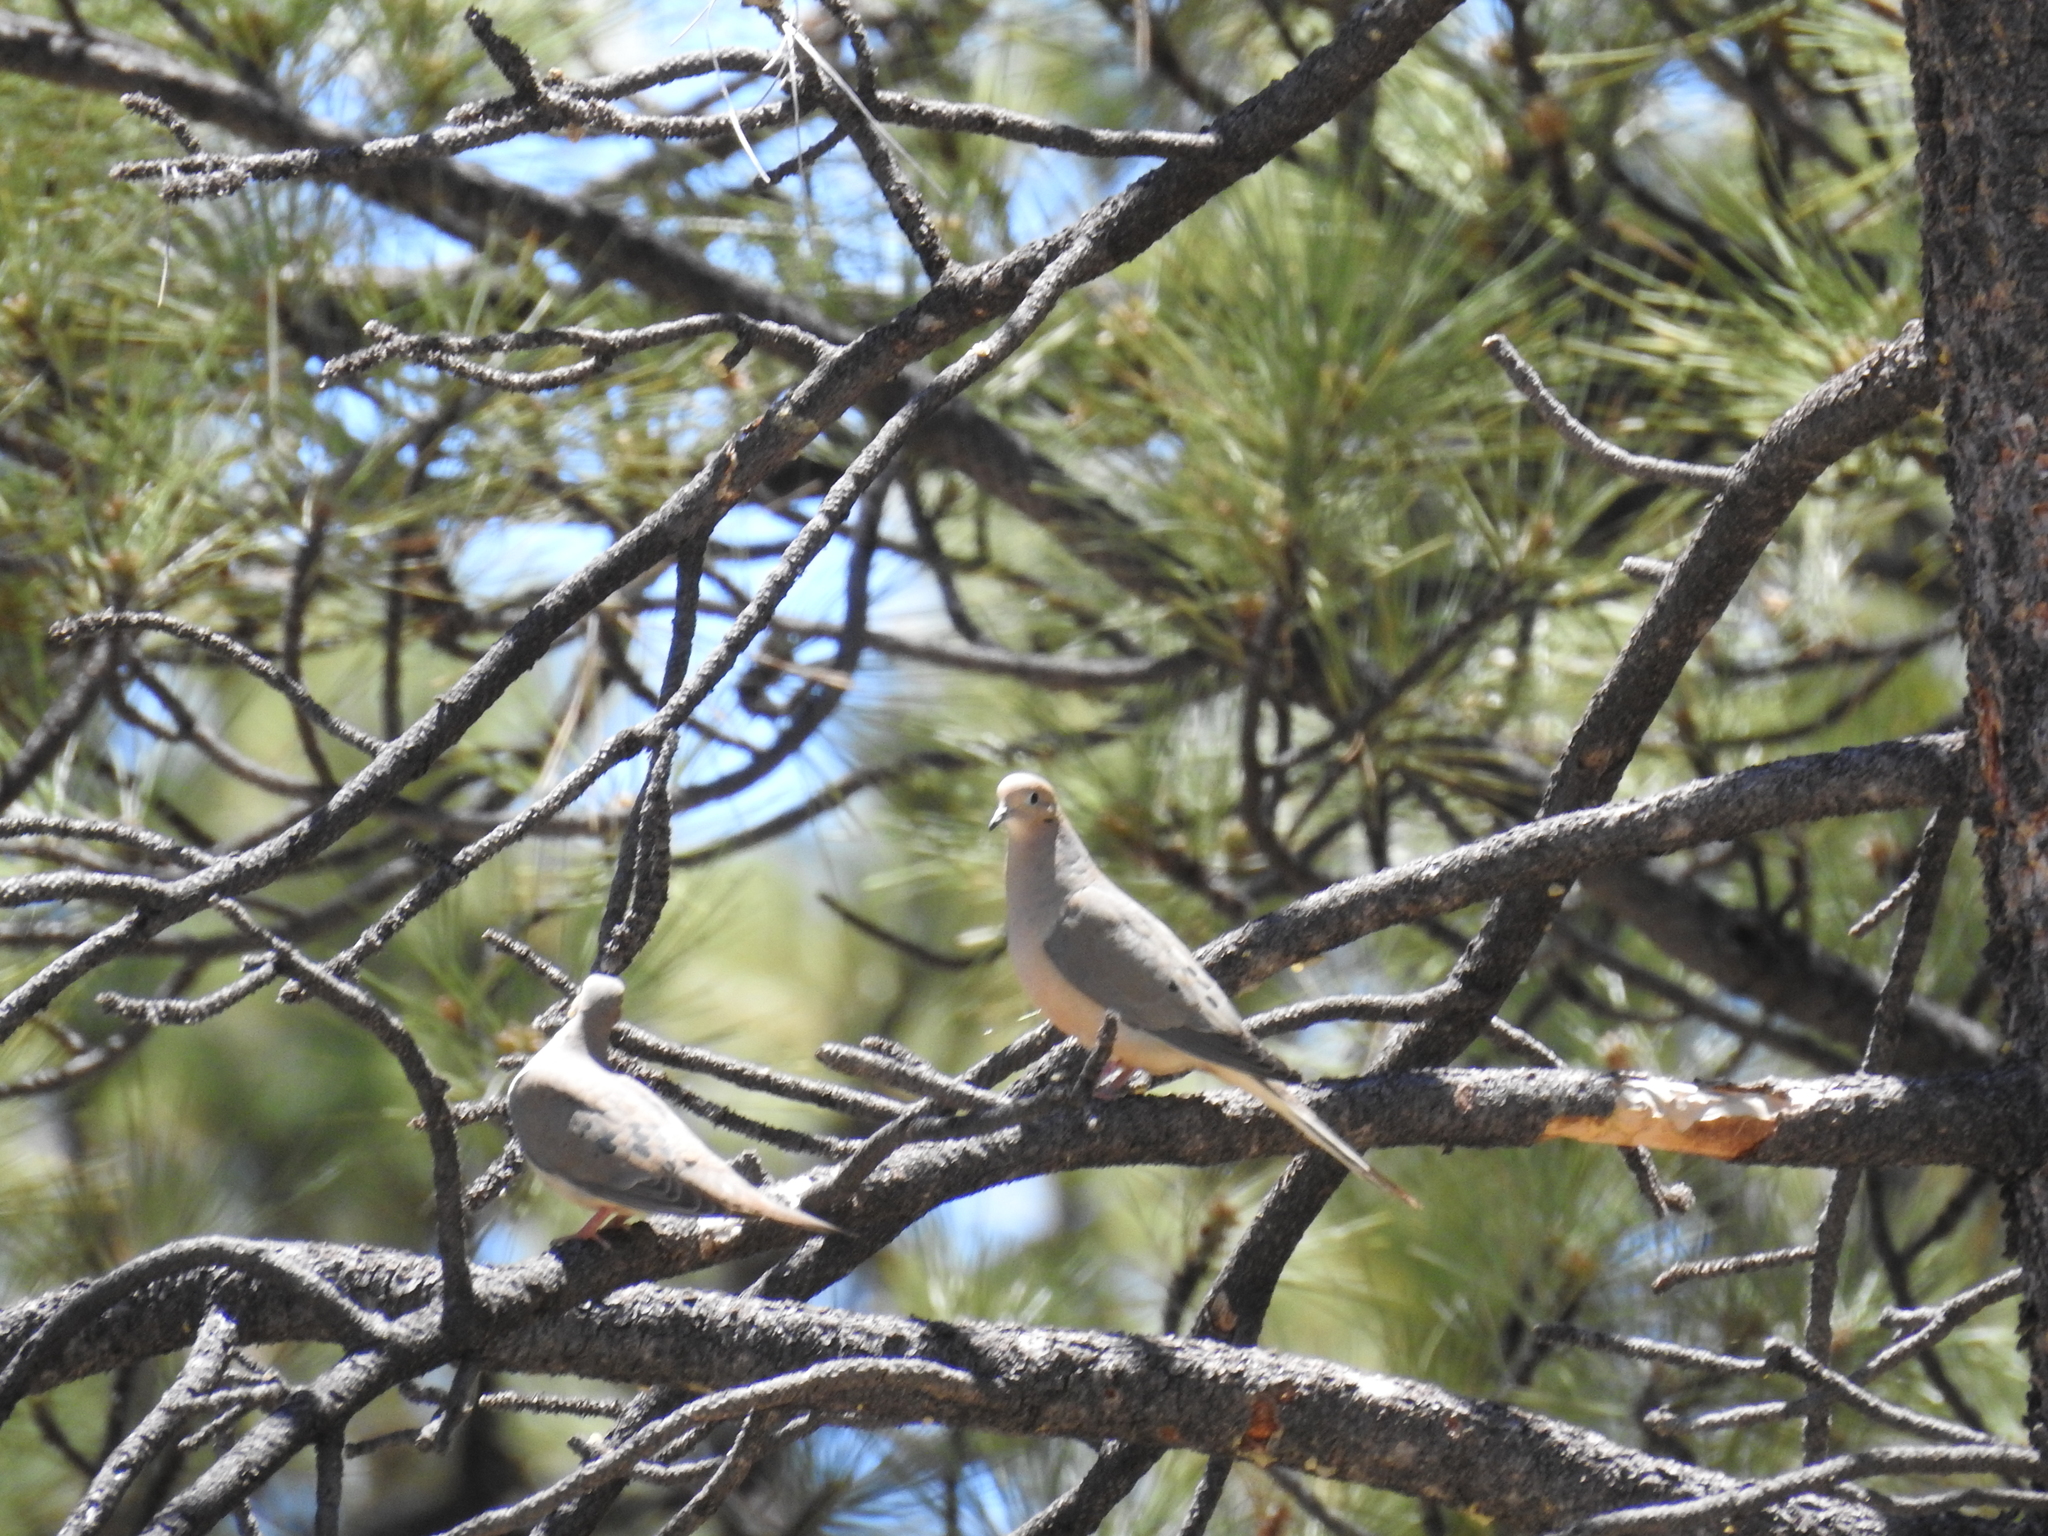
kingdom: Animalia
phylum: Chordata
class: Aves
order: Columbiformes
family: Columbidae
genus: Zenaida
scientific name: Zenaida macroura
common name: Mourning dove
